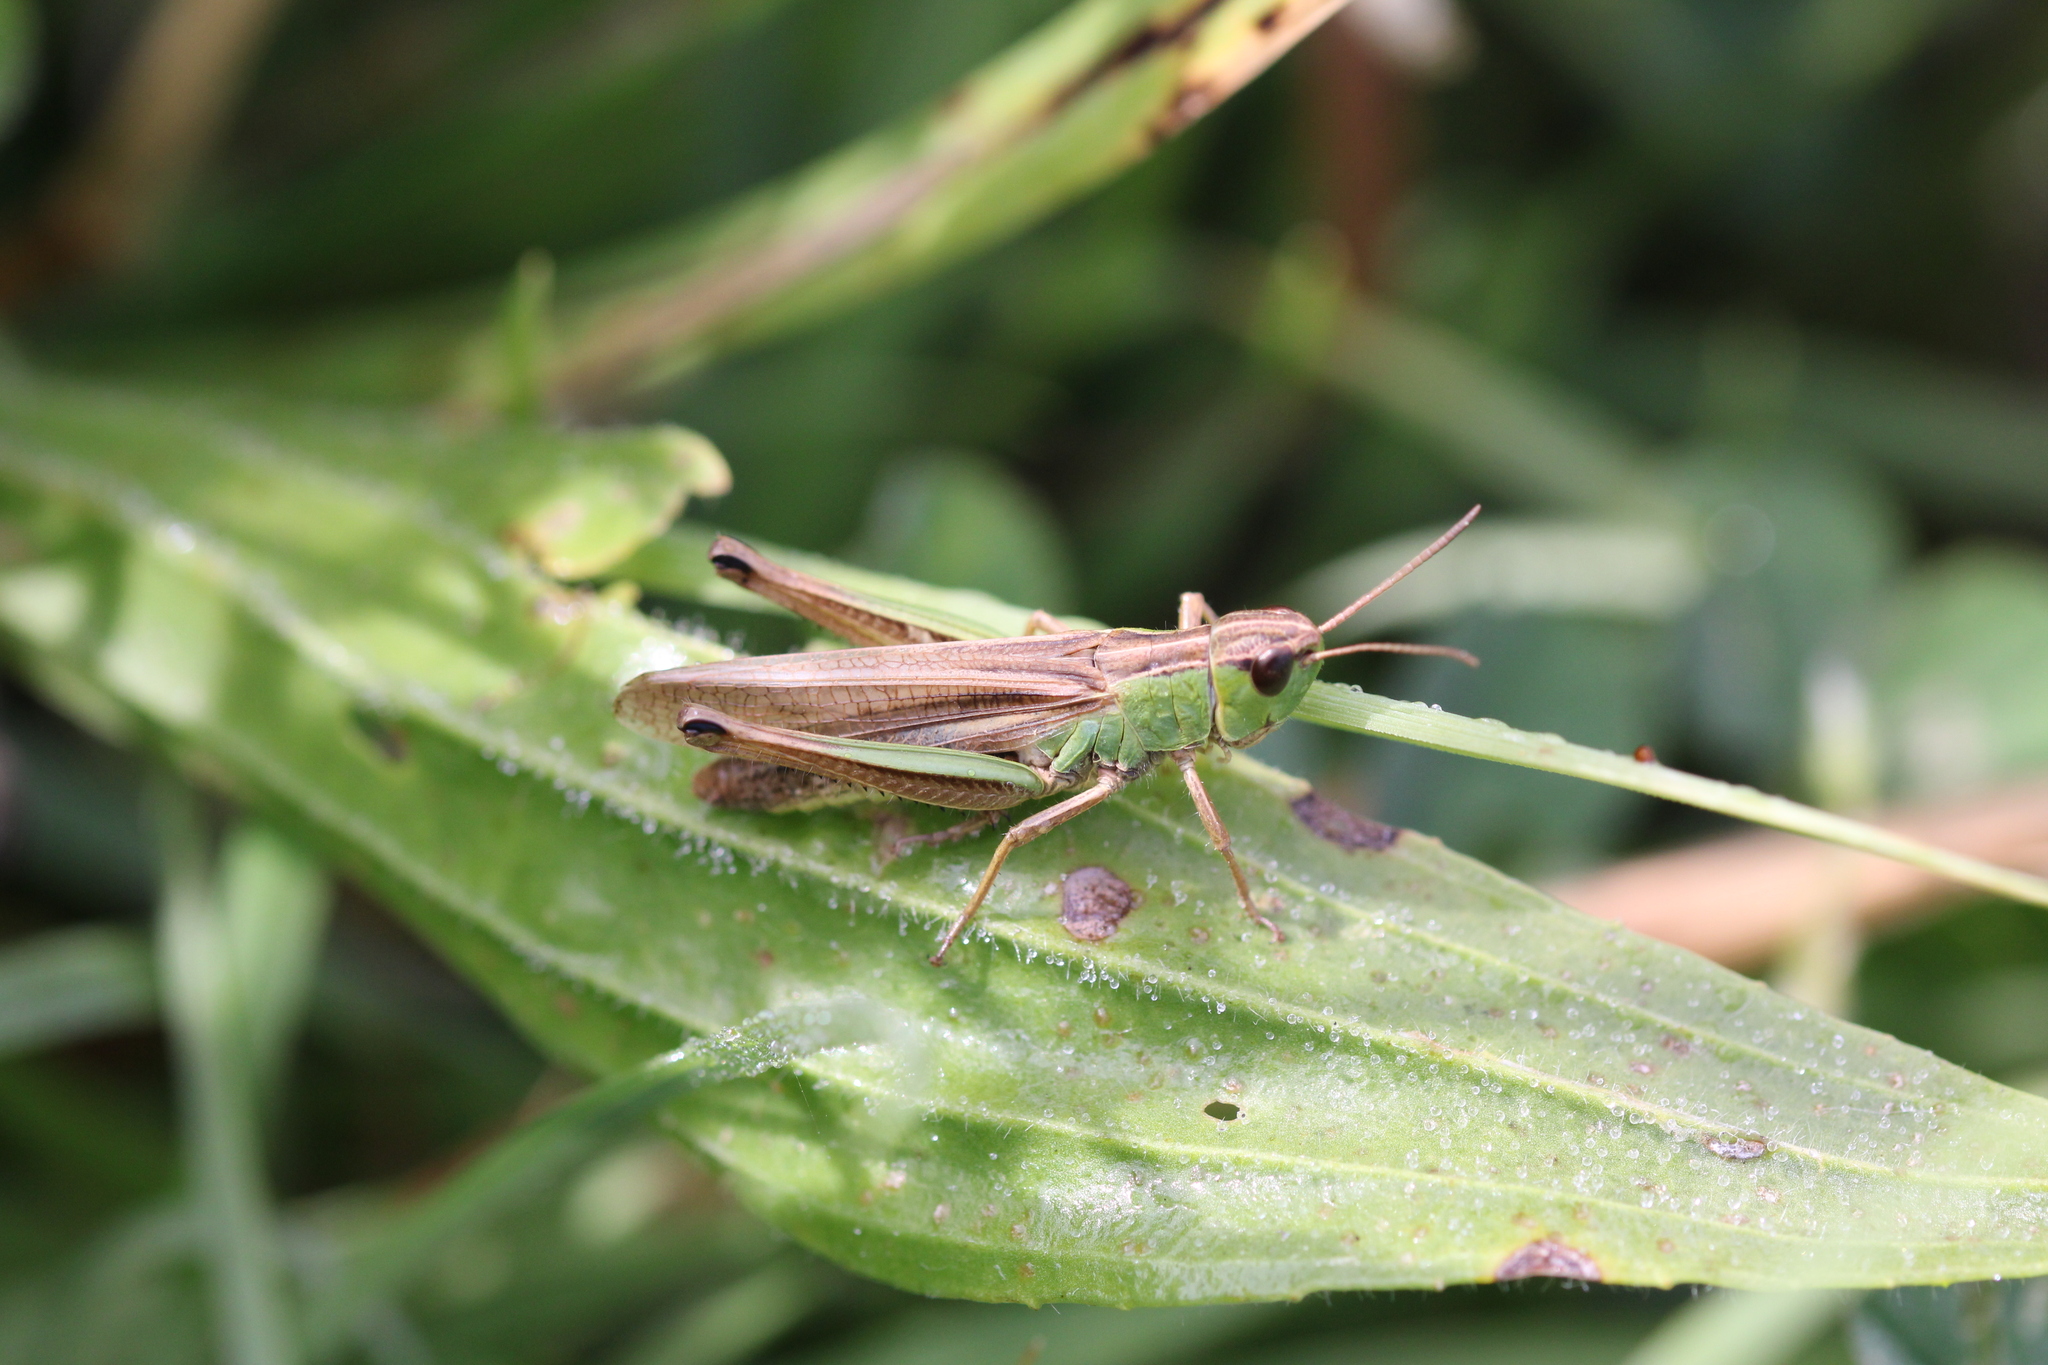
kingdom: Animalia
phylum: Arthropoda
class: Insecta
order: Orthoptera
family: Acrididae
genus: Pseudochorthippus
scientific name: Pseudochorthippus parallelus
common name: Meadow grasshopper
